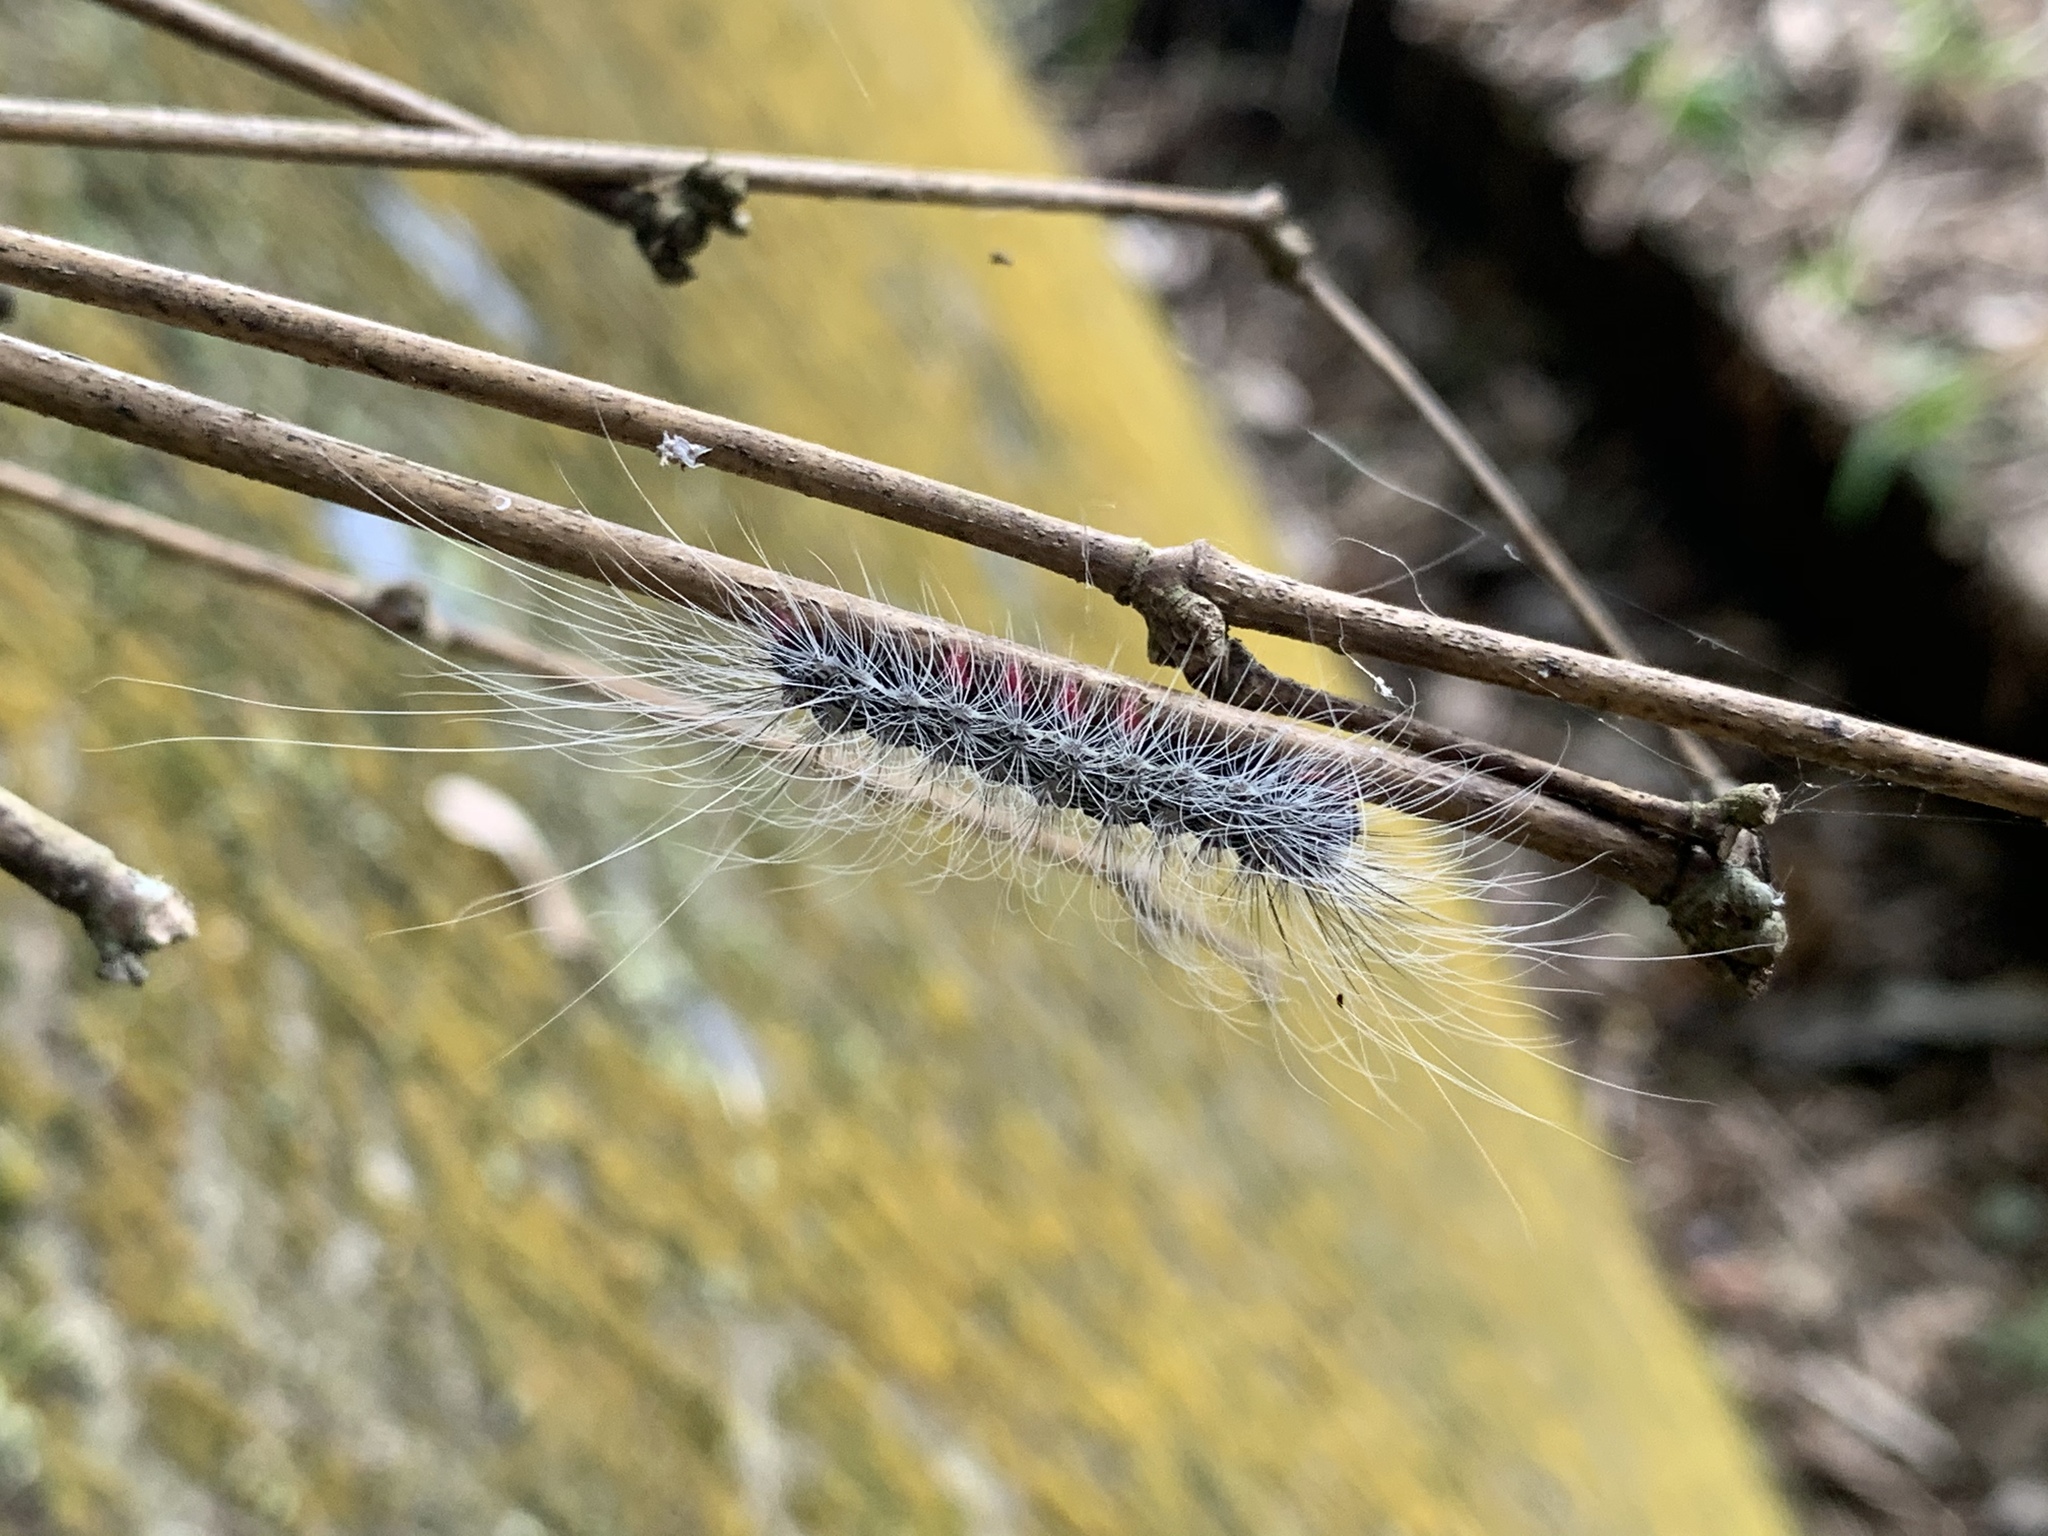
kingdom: Animalia
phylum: Arthropoda
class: Insecta
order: Lepidoptera
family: Erebidae
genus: Chrysaeglia
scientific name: Chrysaeglia magnifica
